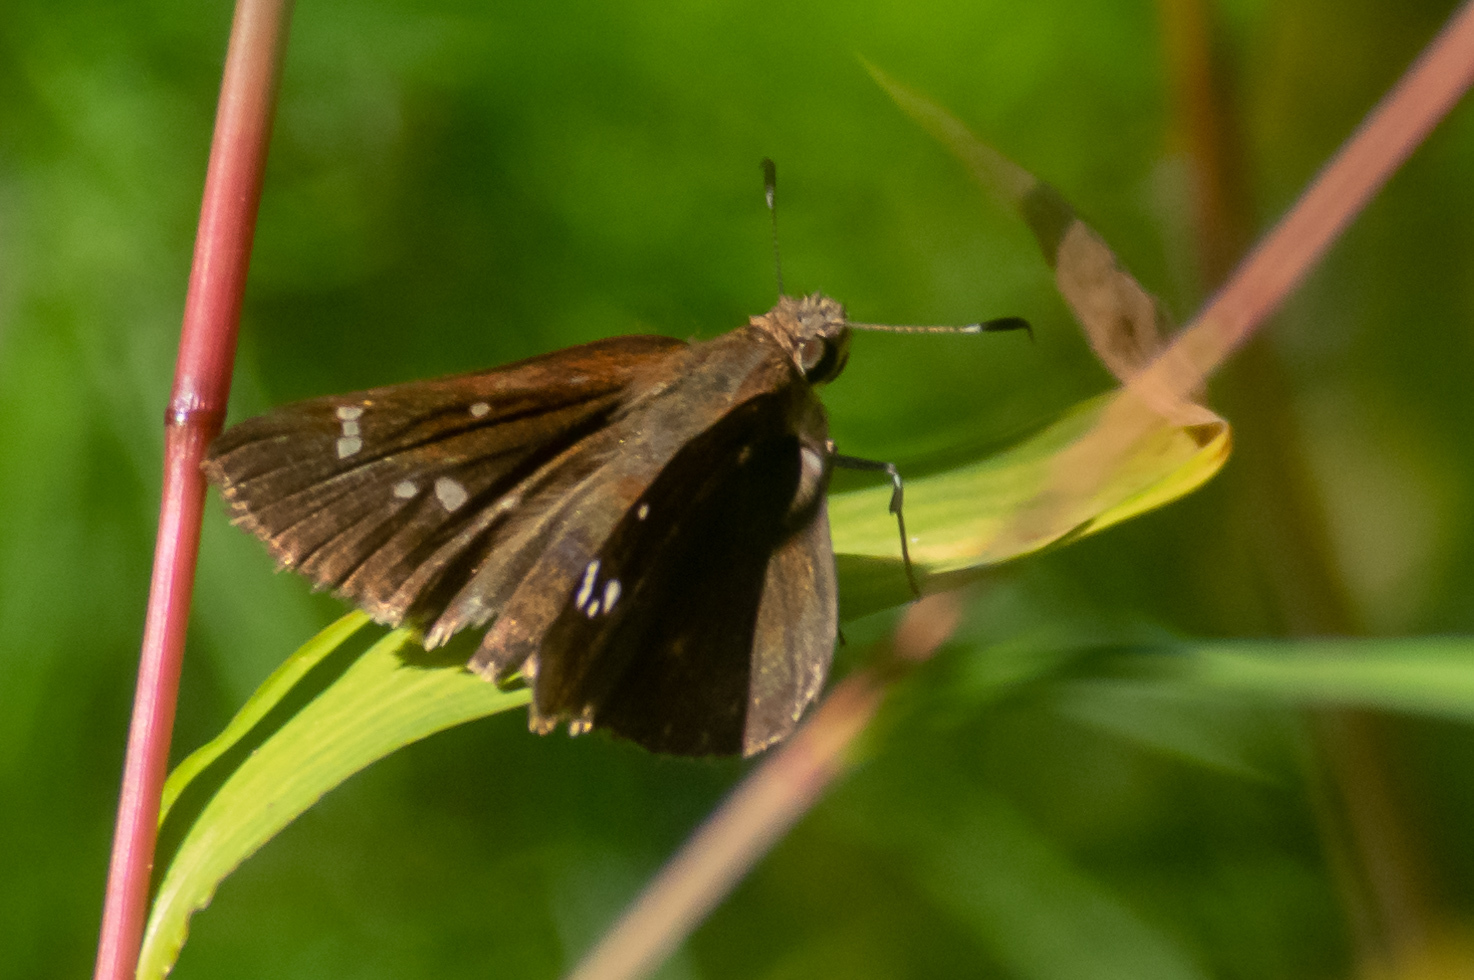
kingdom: Animalia
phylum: Arthropoda
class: Insecta
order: Lepidoptera
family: Hesperiidae
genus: Lerema
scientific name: Lerema accius
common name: Clouded skipper
